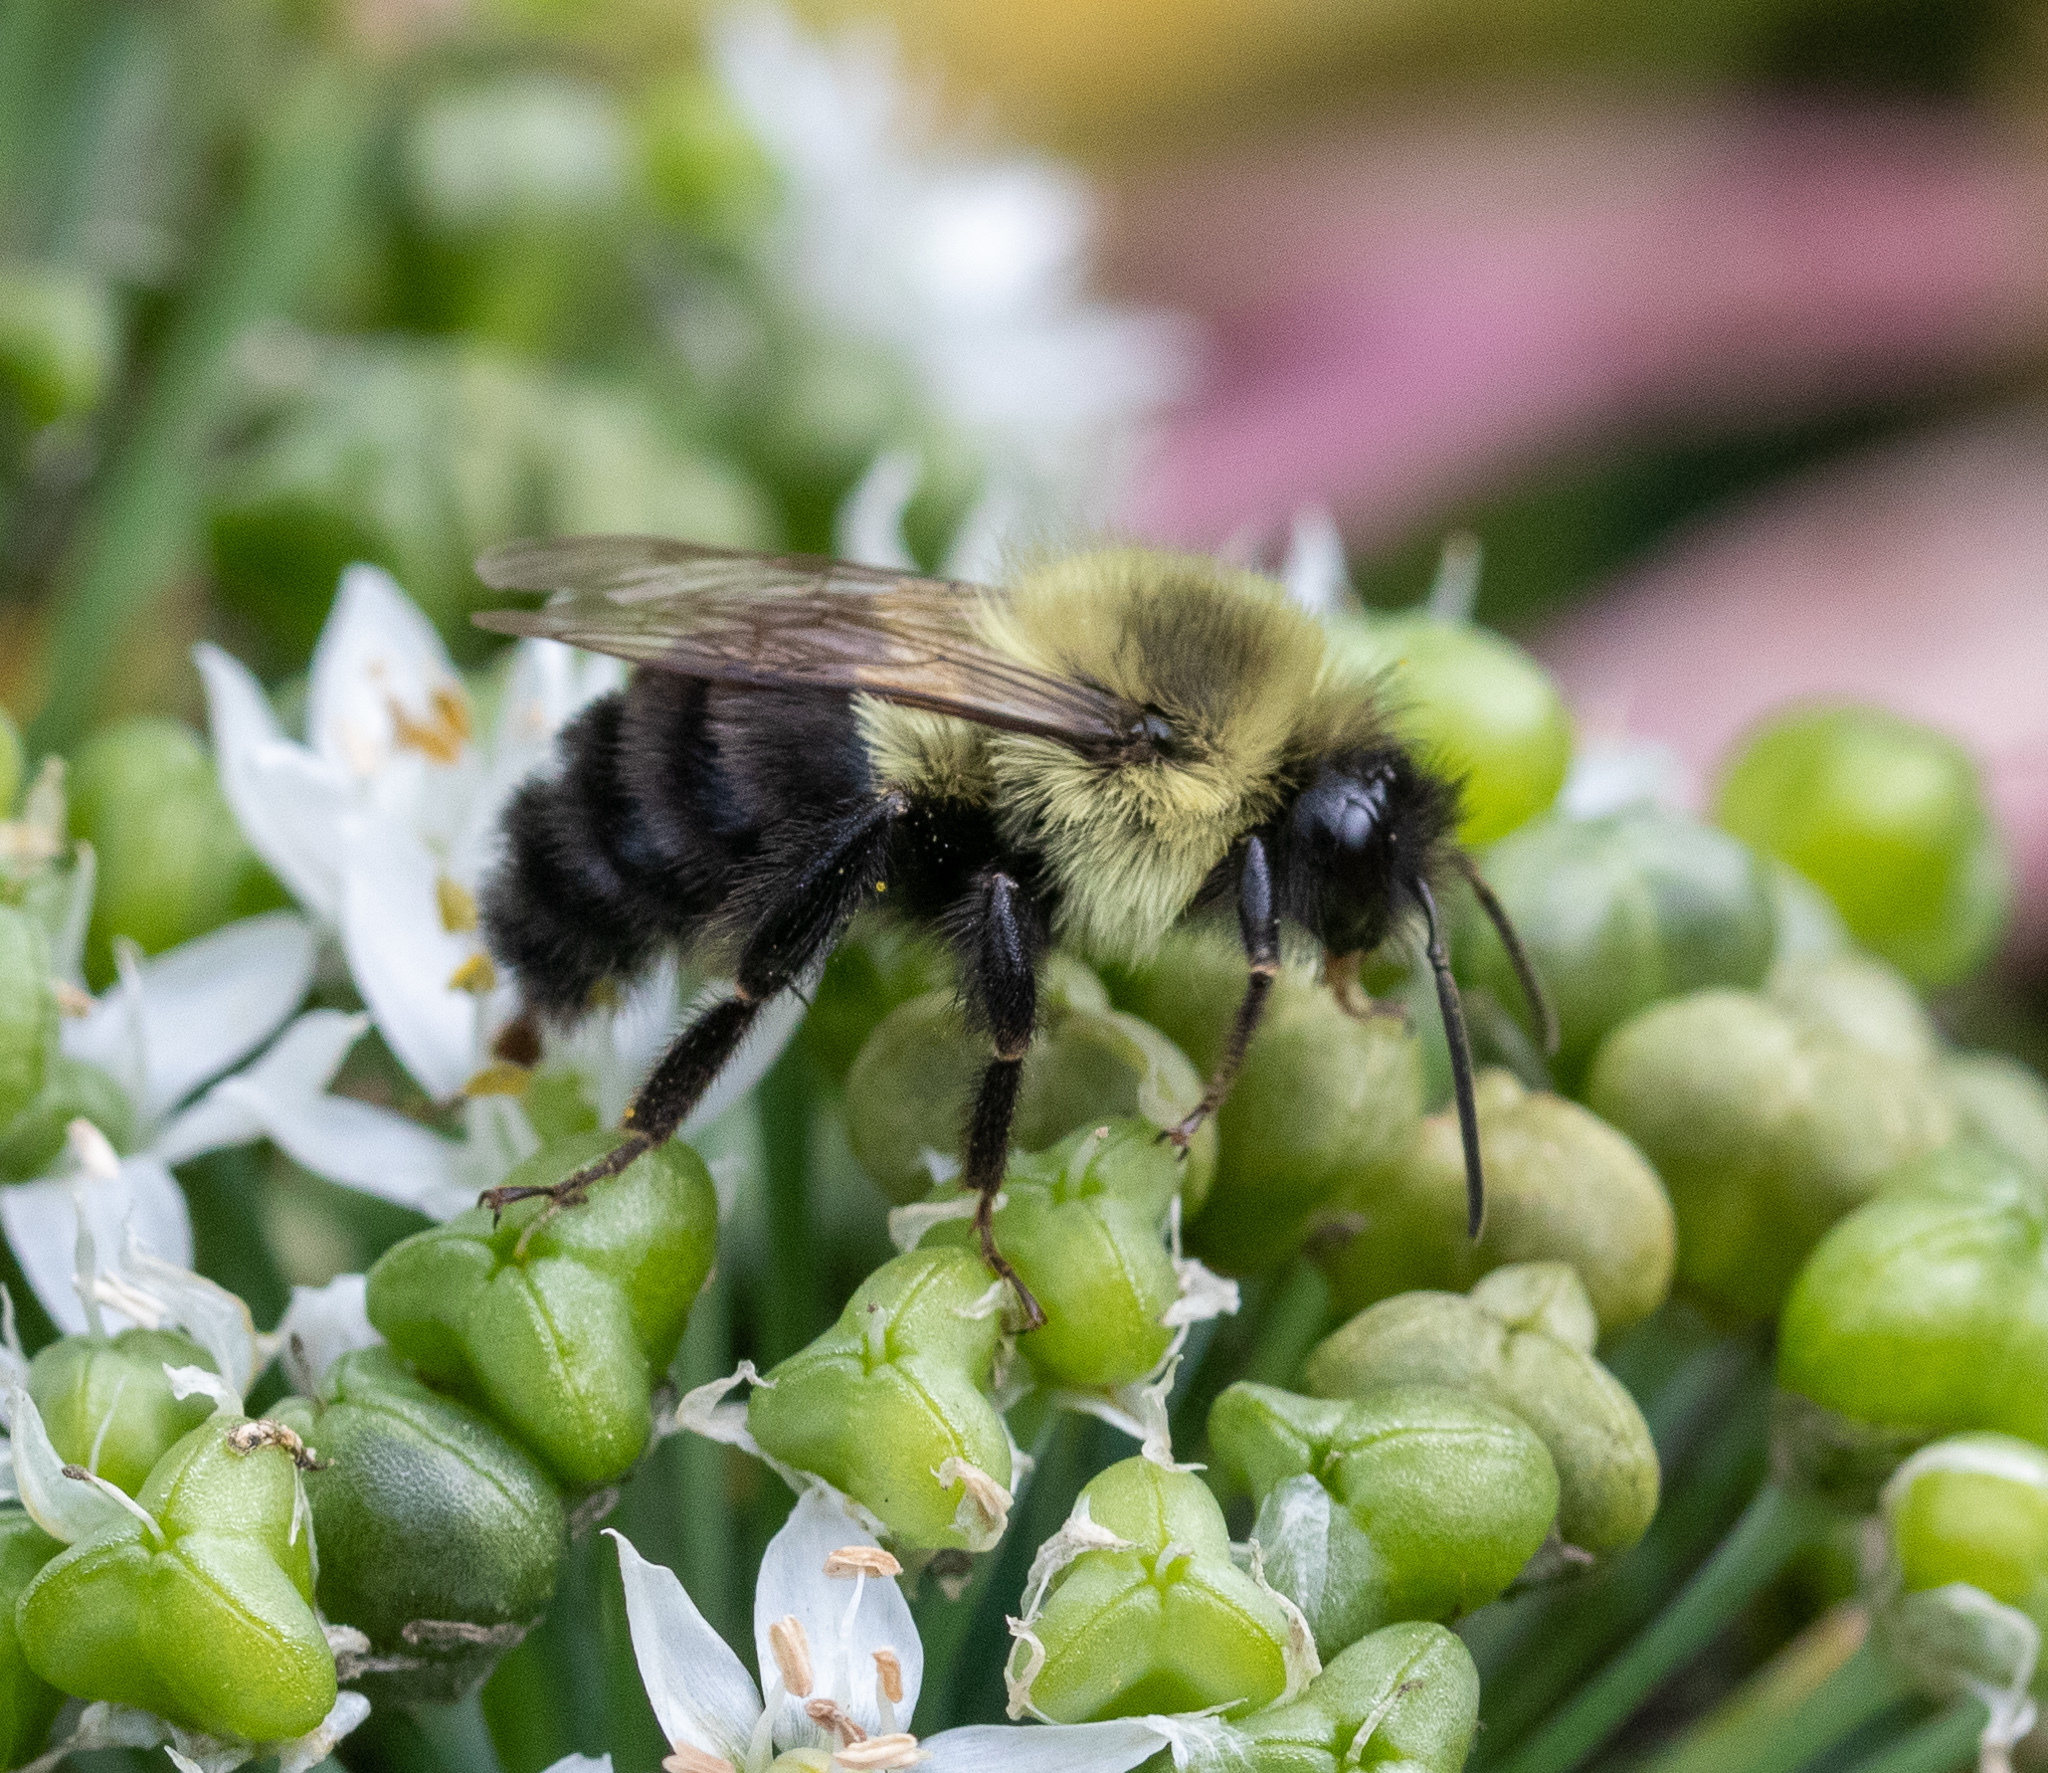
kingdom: Animalia
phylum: Arthropoda
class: Insecta
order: Hymenoptera
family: Apidae
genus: Bombus
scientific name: Bombus impatiens
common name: Common eastern bumble bee
